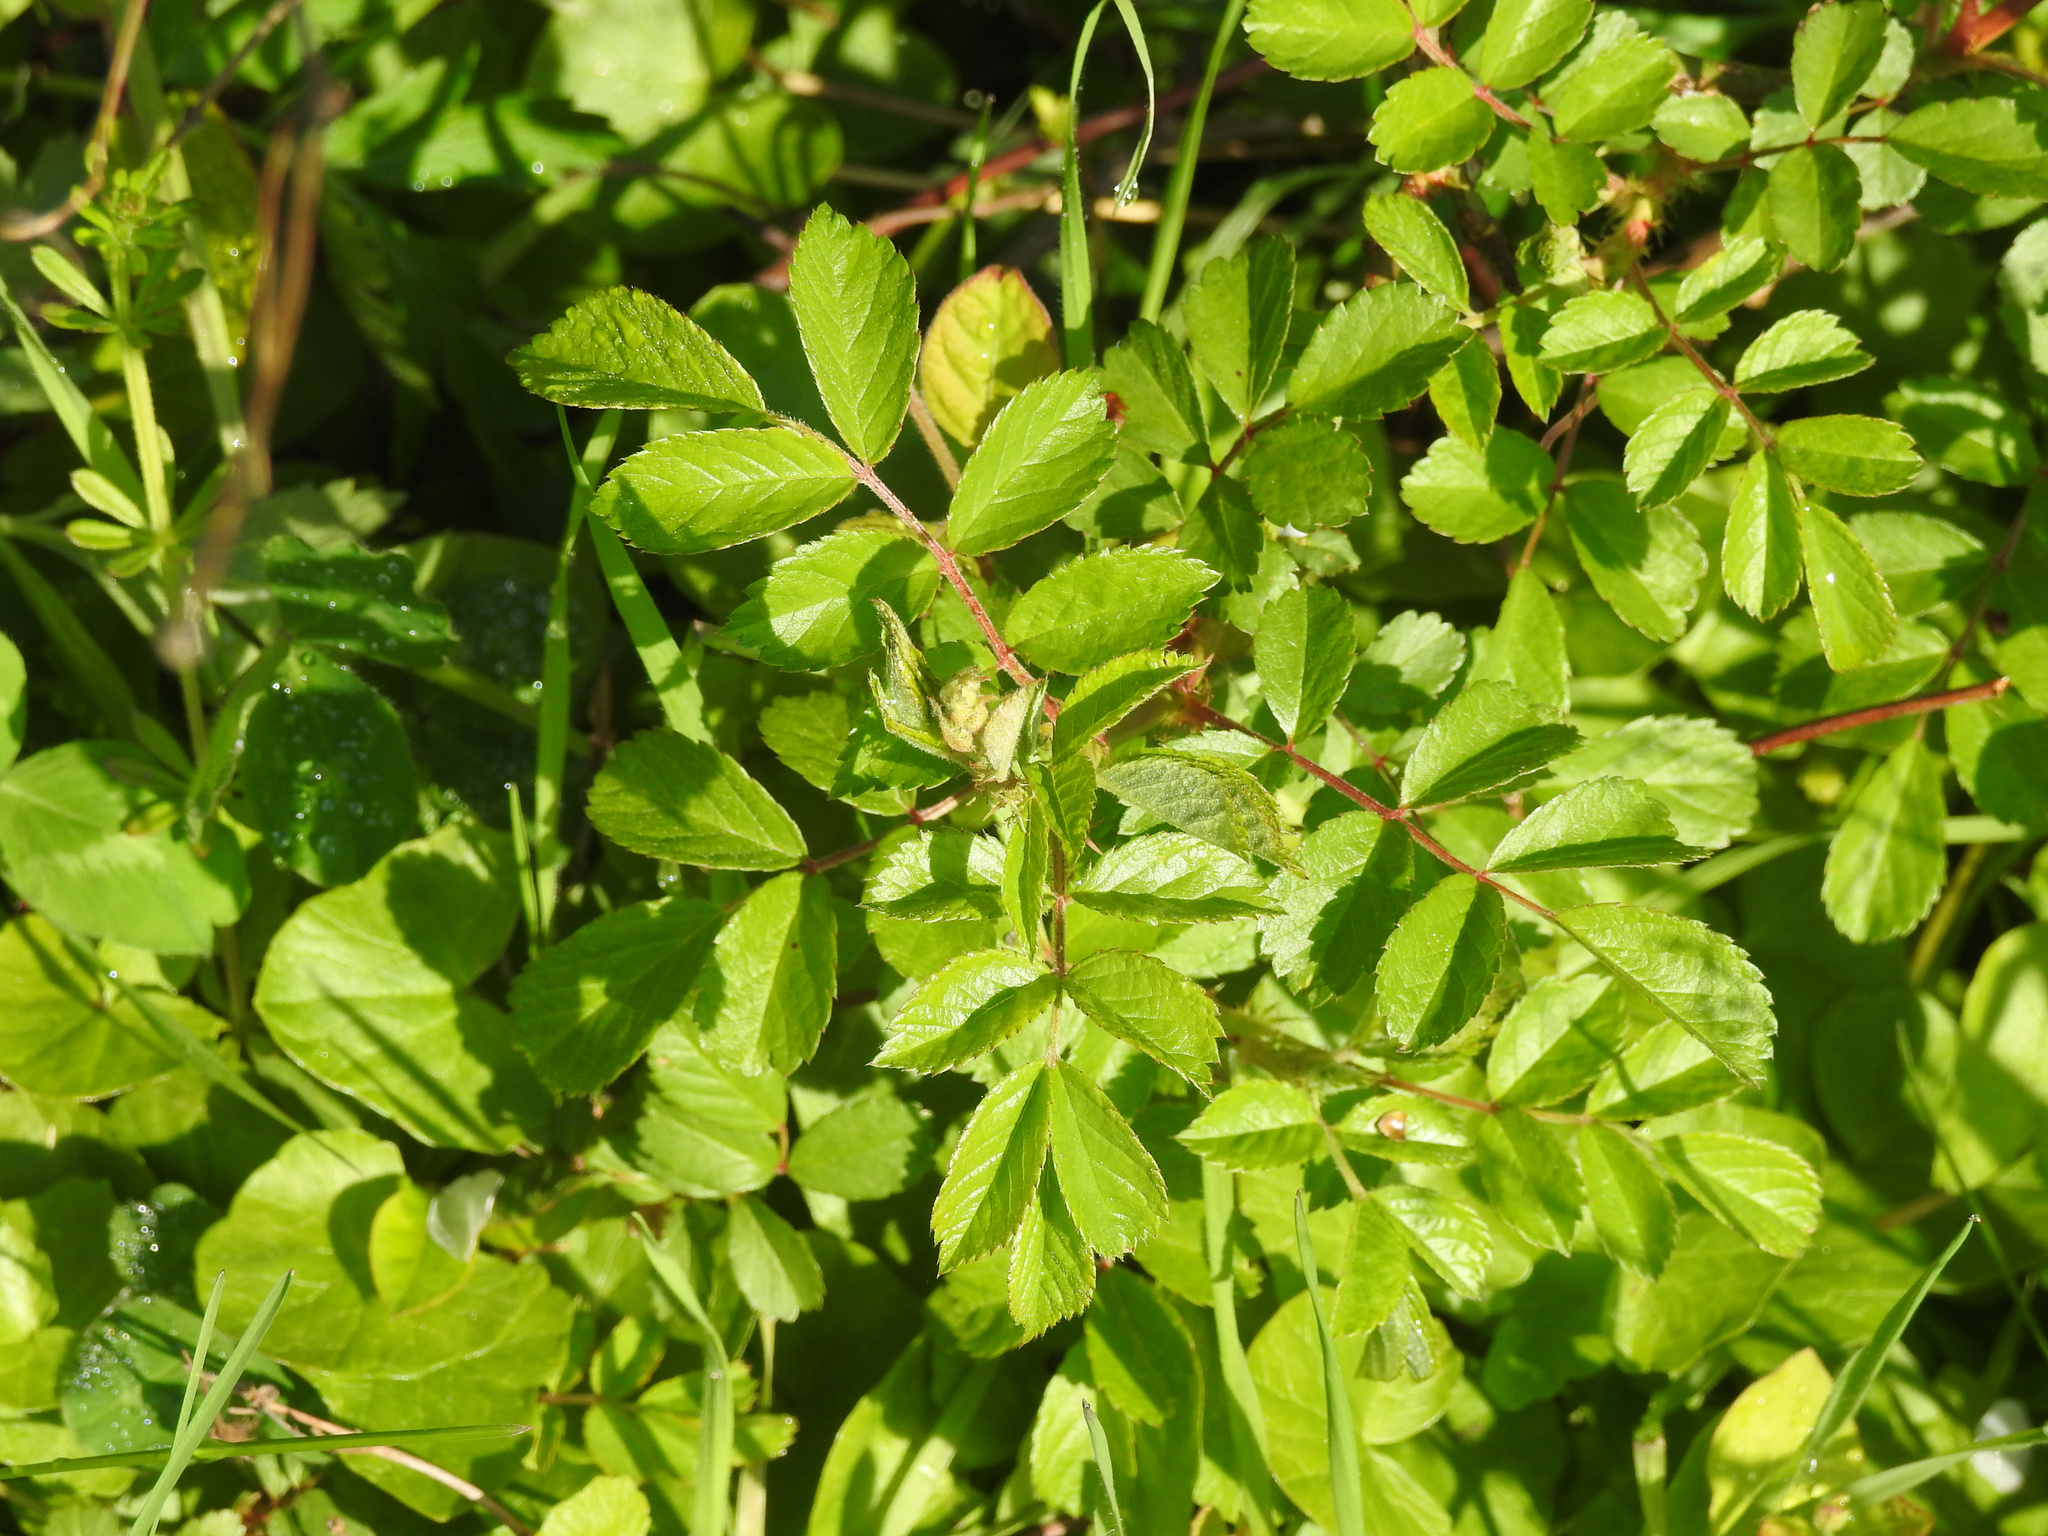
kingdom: Plantae
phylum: Tracheophyta
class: Magnoliopsida
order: Rosales
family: Rosaceae
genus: Rosa
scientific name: Rosa multiflora
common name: Multiflora rose
